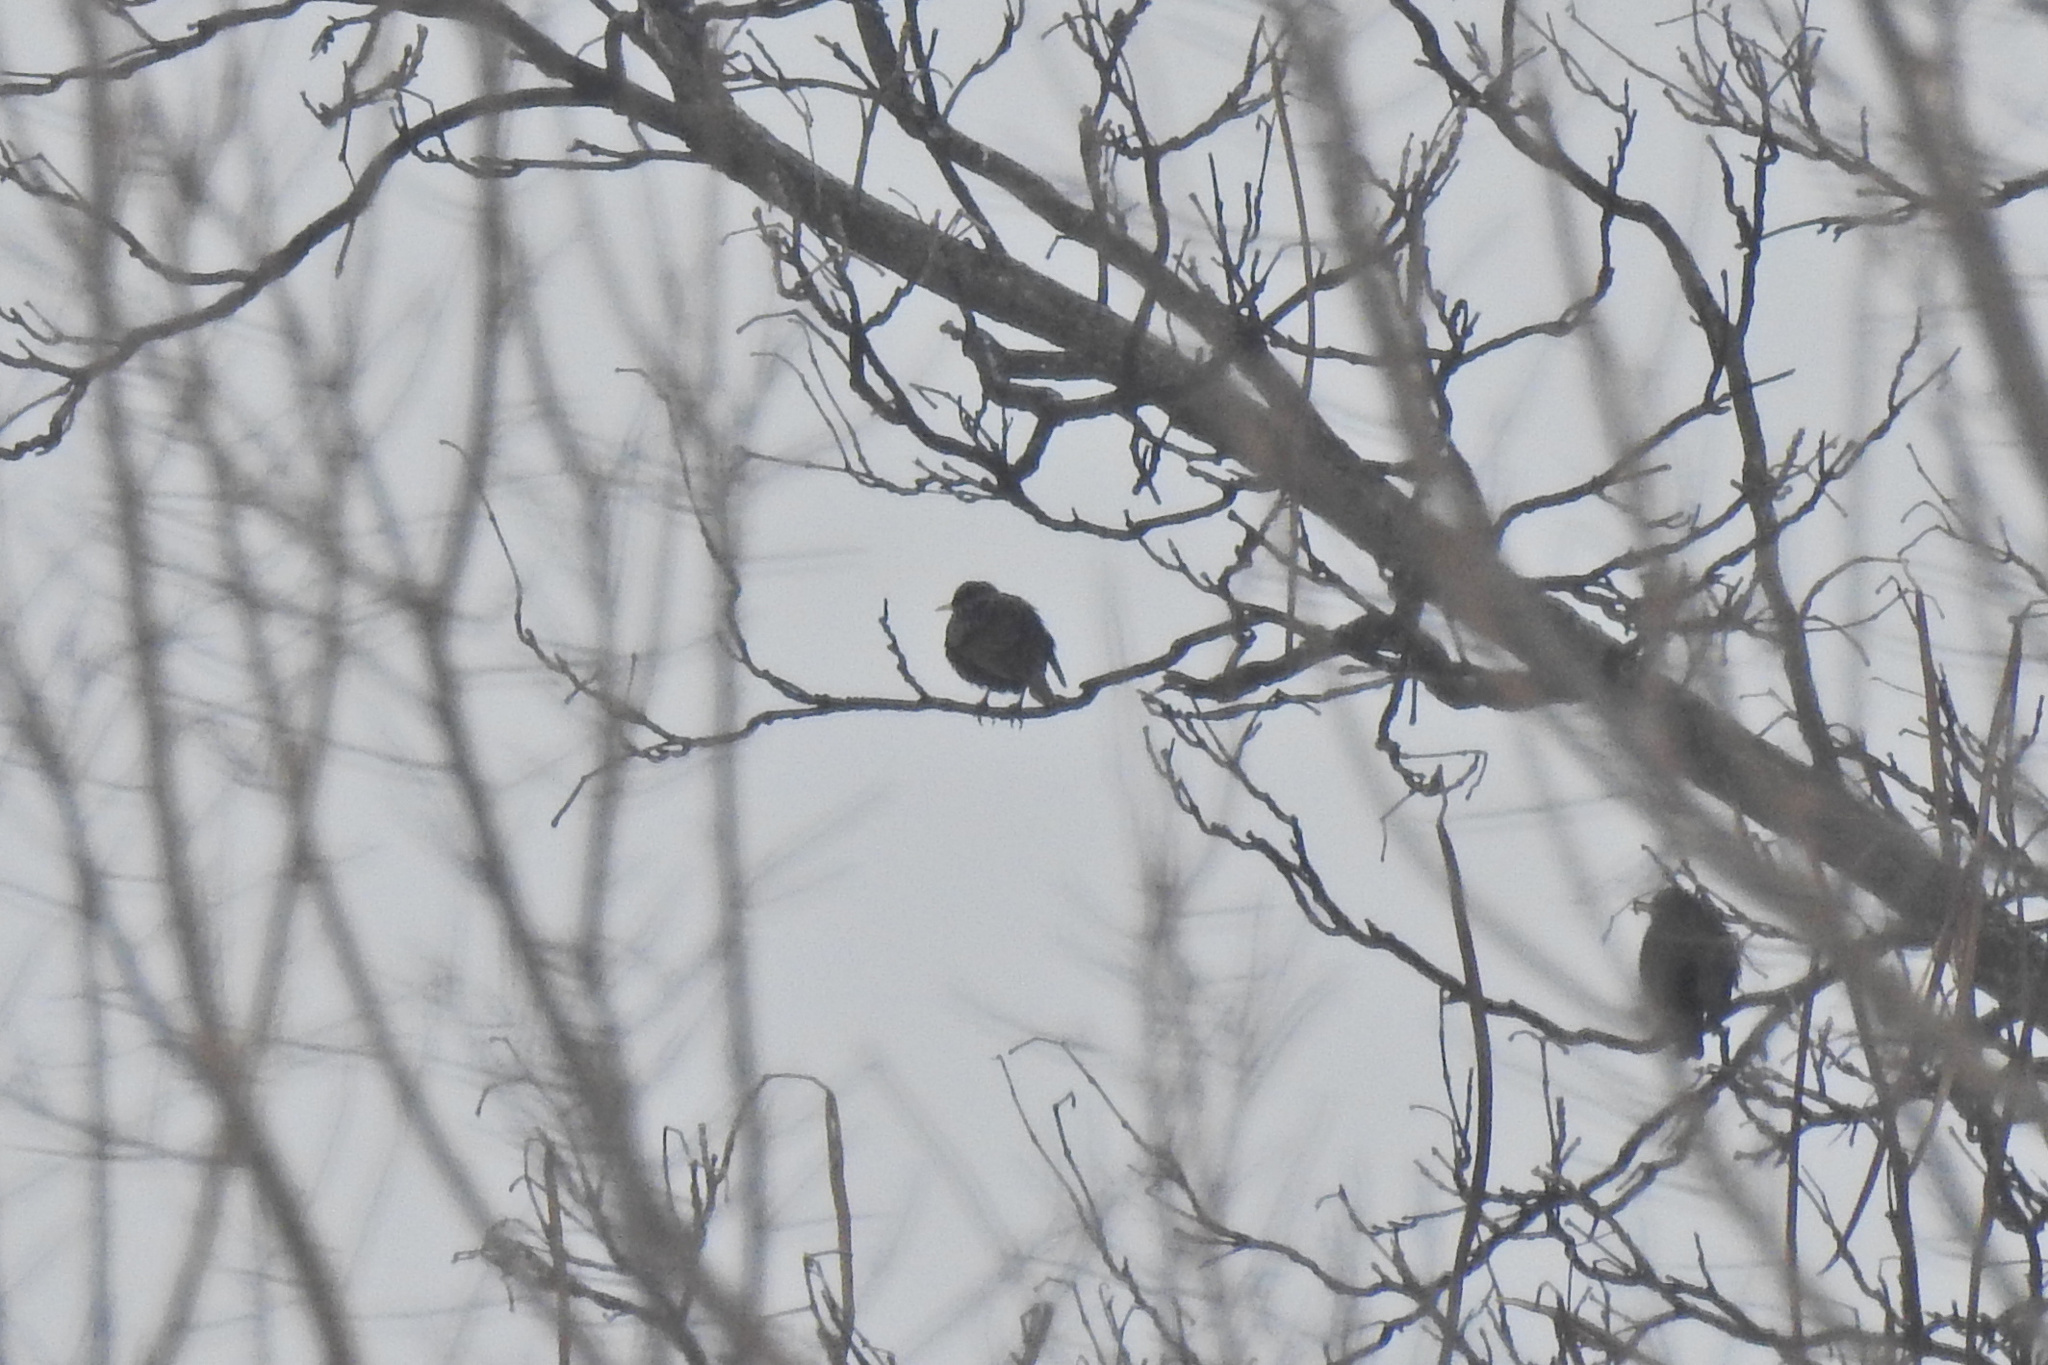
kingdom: Animalia
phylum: Chordata
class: Aves
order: Passeriformes
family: Sturnidae
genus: Sturnus
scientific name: Sturnus vulgaris
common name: Common starling
